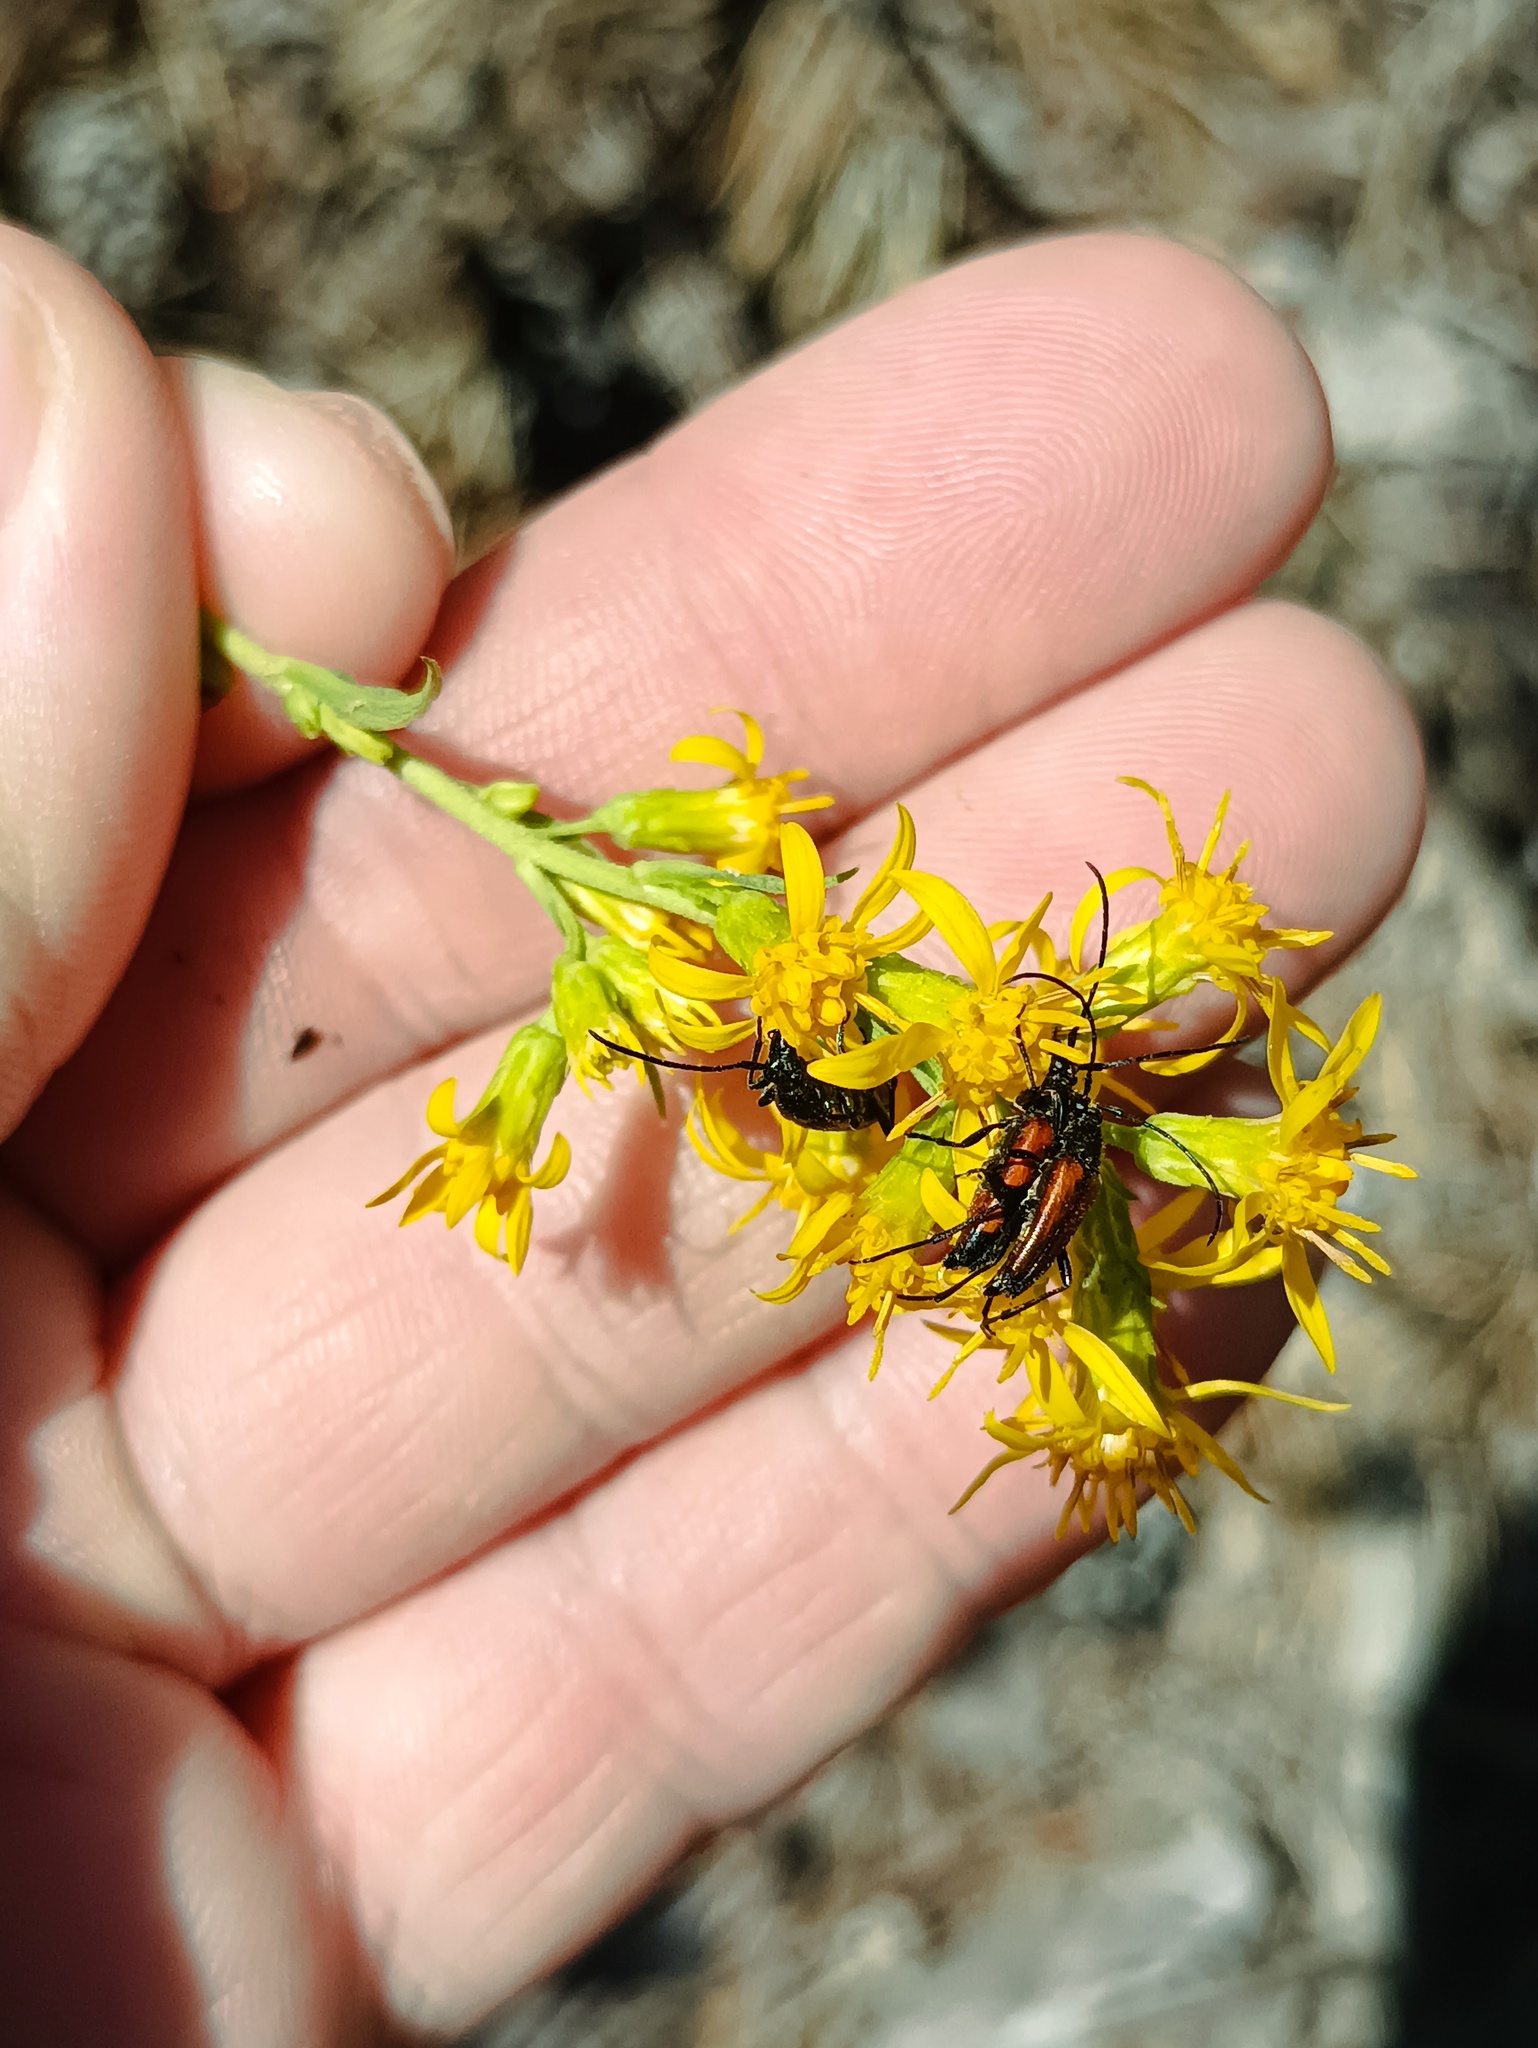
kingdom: Animalia
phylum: Arthropoda
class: Insecta
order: Coleoptera
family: Cerambycidae
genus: Stenurella
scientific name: Stenurella bifasciata
